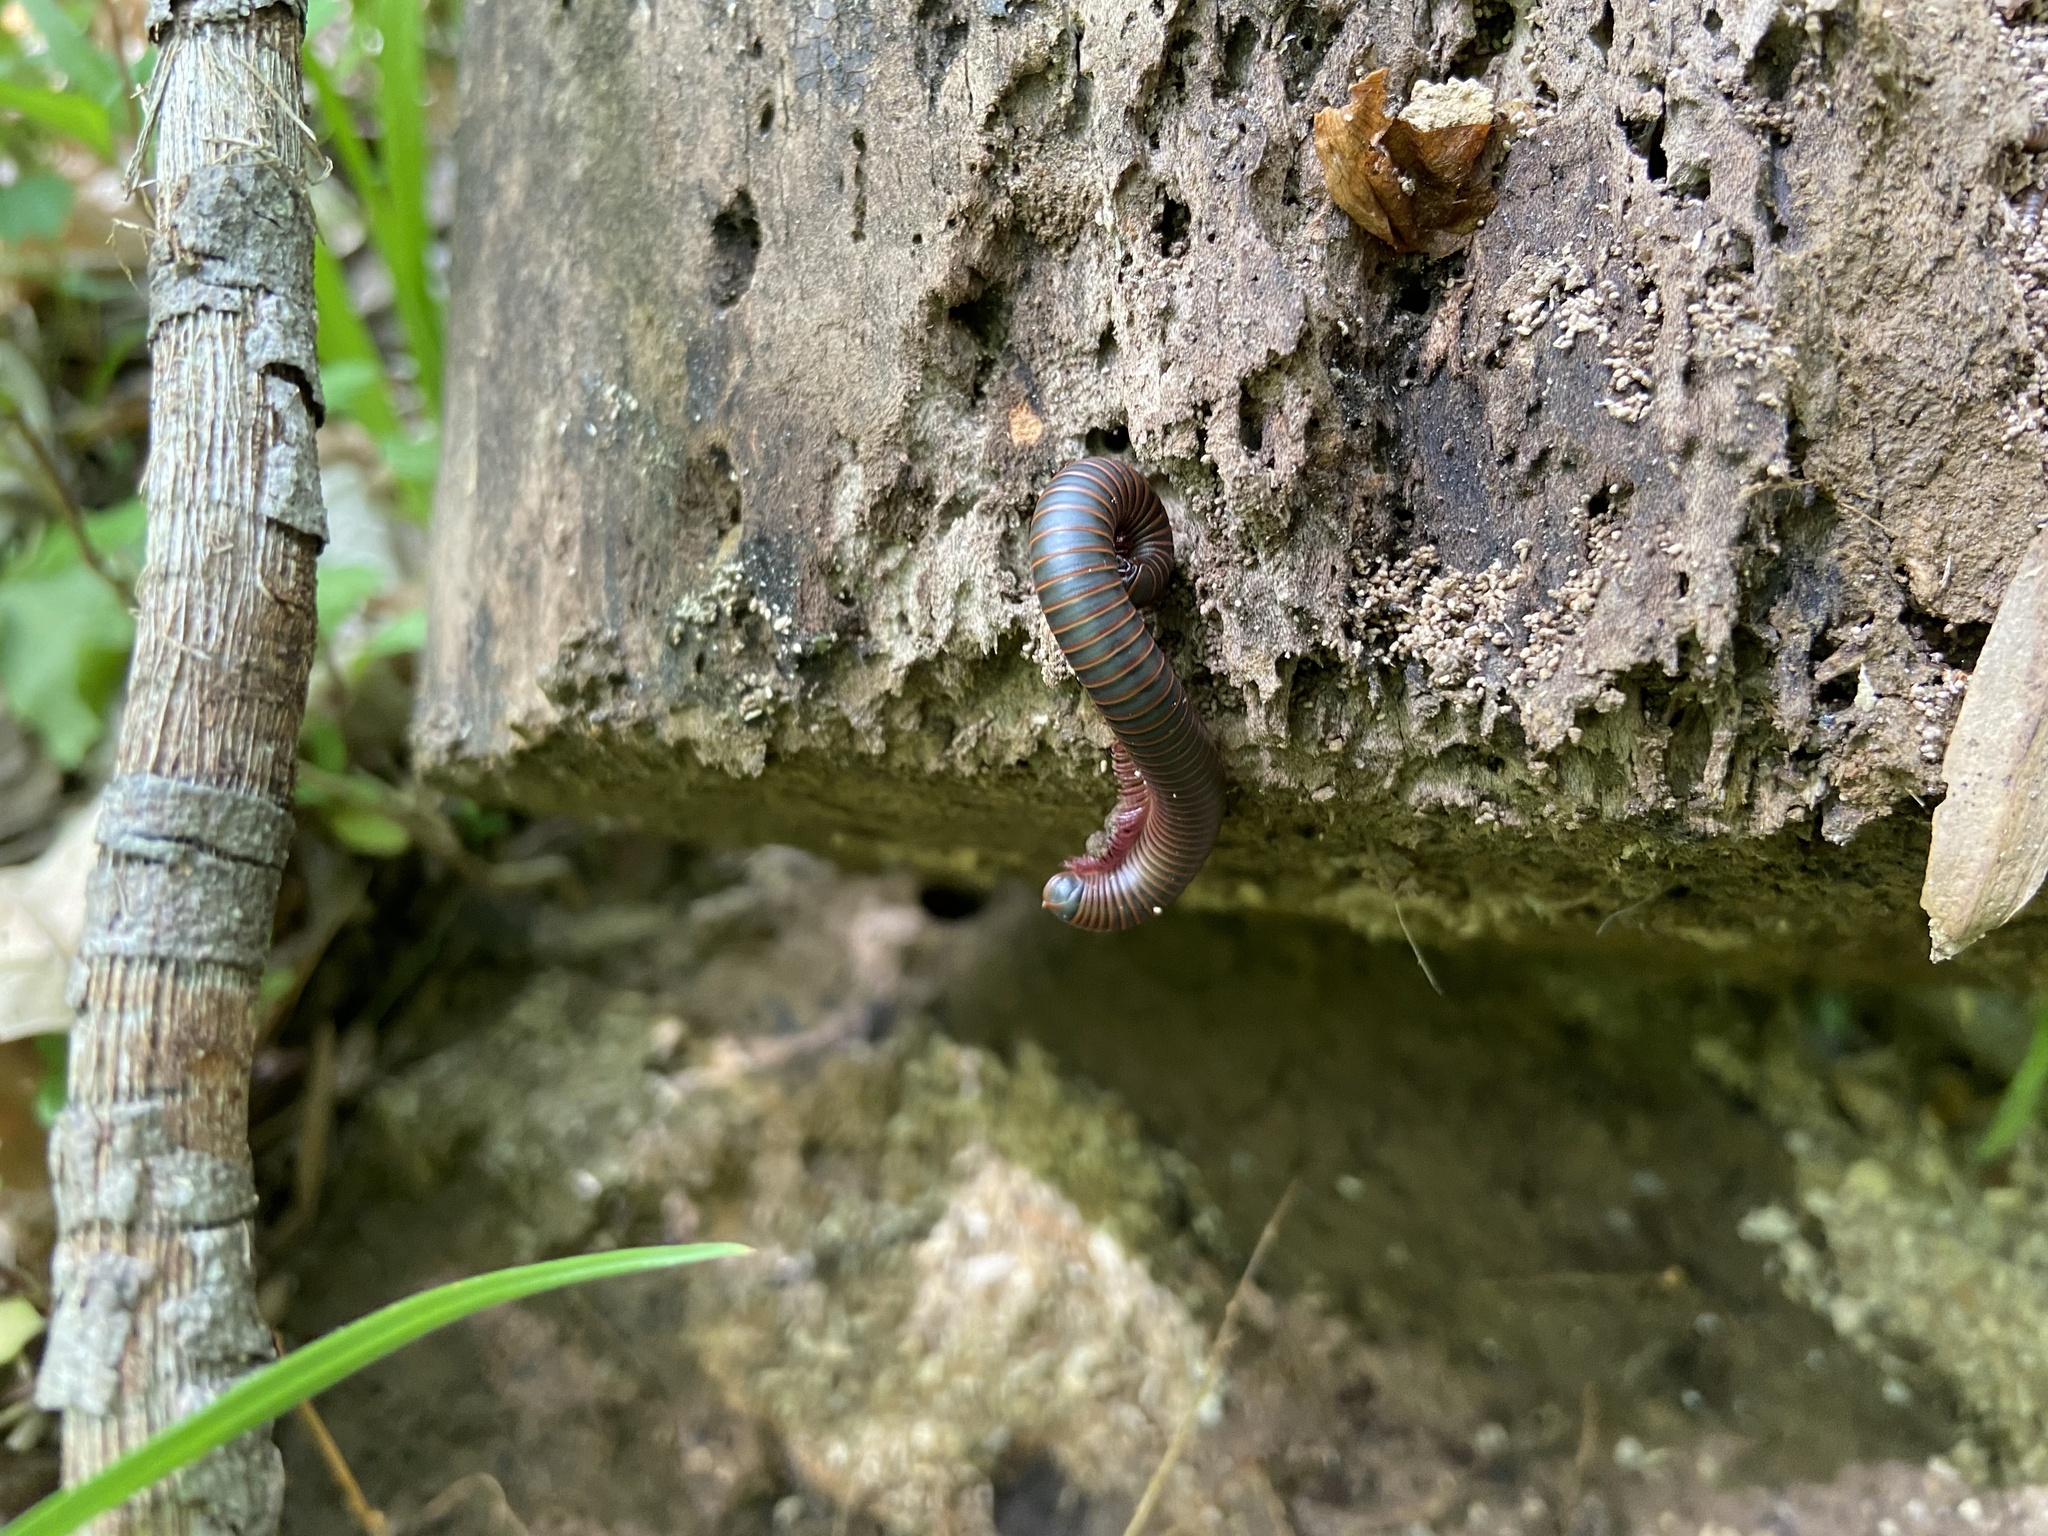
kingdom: Animalia
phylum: Arthropoda
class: Diplopoda
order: Spirobolida
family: Spirobolidae
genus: Narceus
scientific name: Narceus
